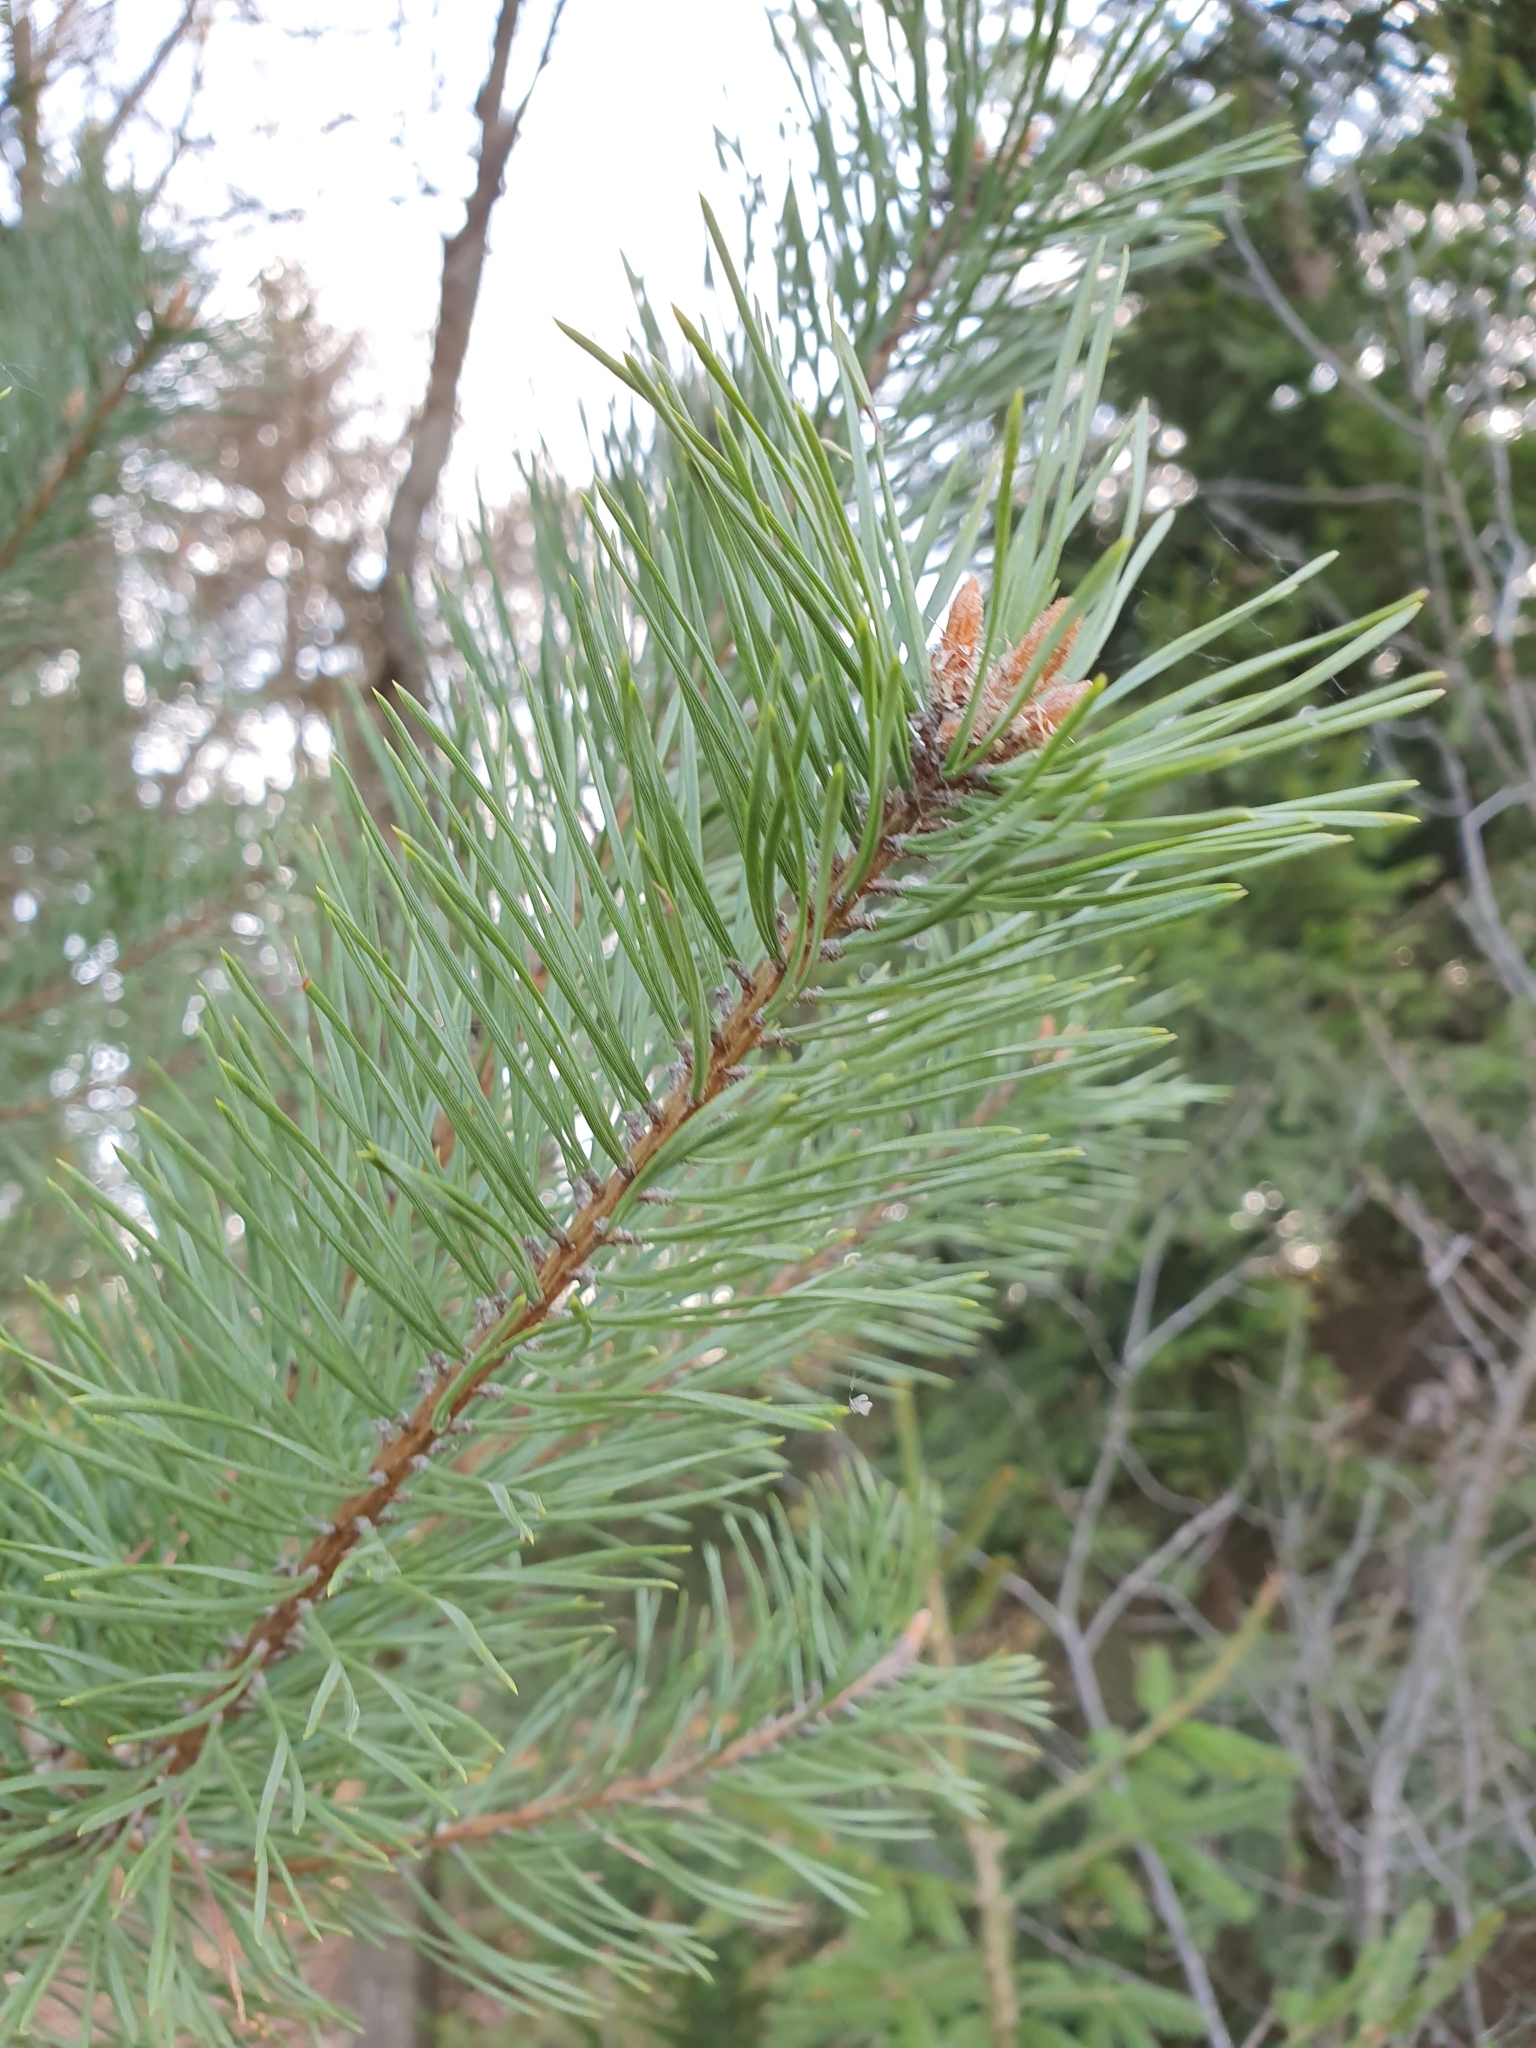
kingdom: Plantae
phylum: Tracheophyta
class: Pinopsida
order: Pinales
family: Pinaceae
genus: Pinus
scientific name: Pinus sylvestris
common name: Scots pine
